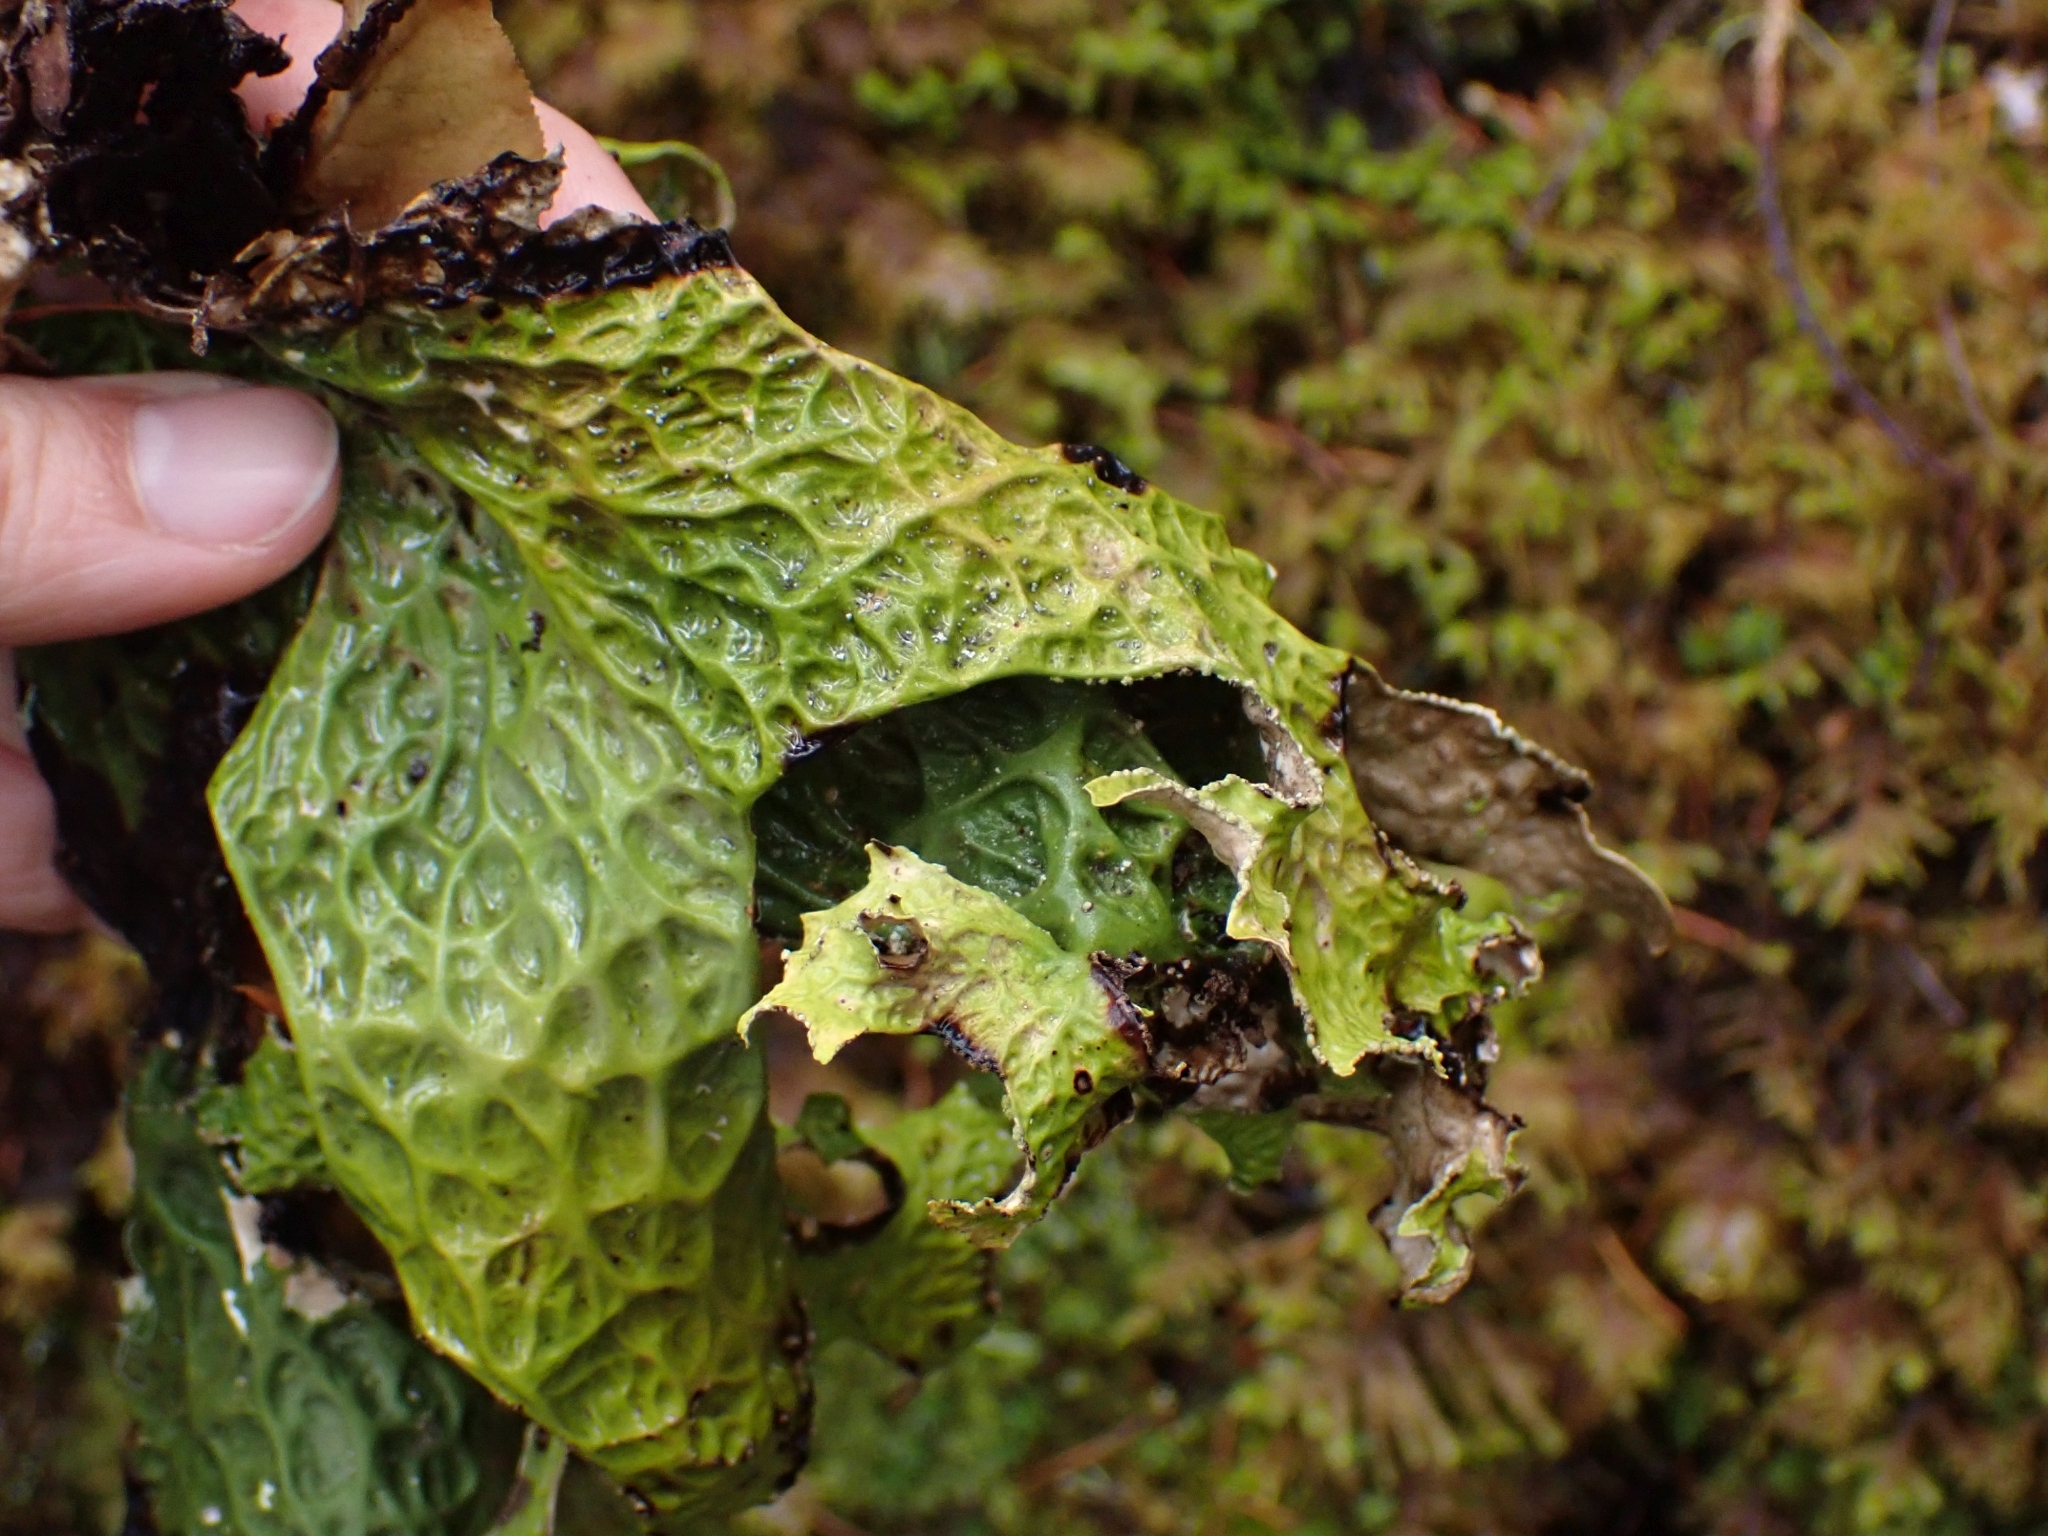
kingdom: Fungi
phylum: Ascomycota
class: Lecanoromycetes
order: Peltigerales
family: Lobariaceae
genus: Lobaria
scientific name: Lobaria pulmonaria
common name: Lungwort
